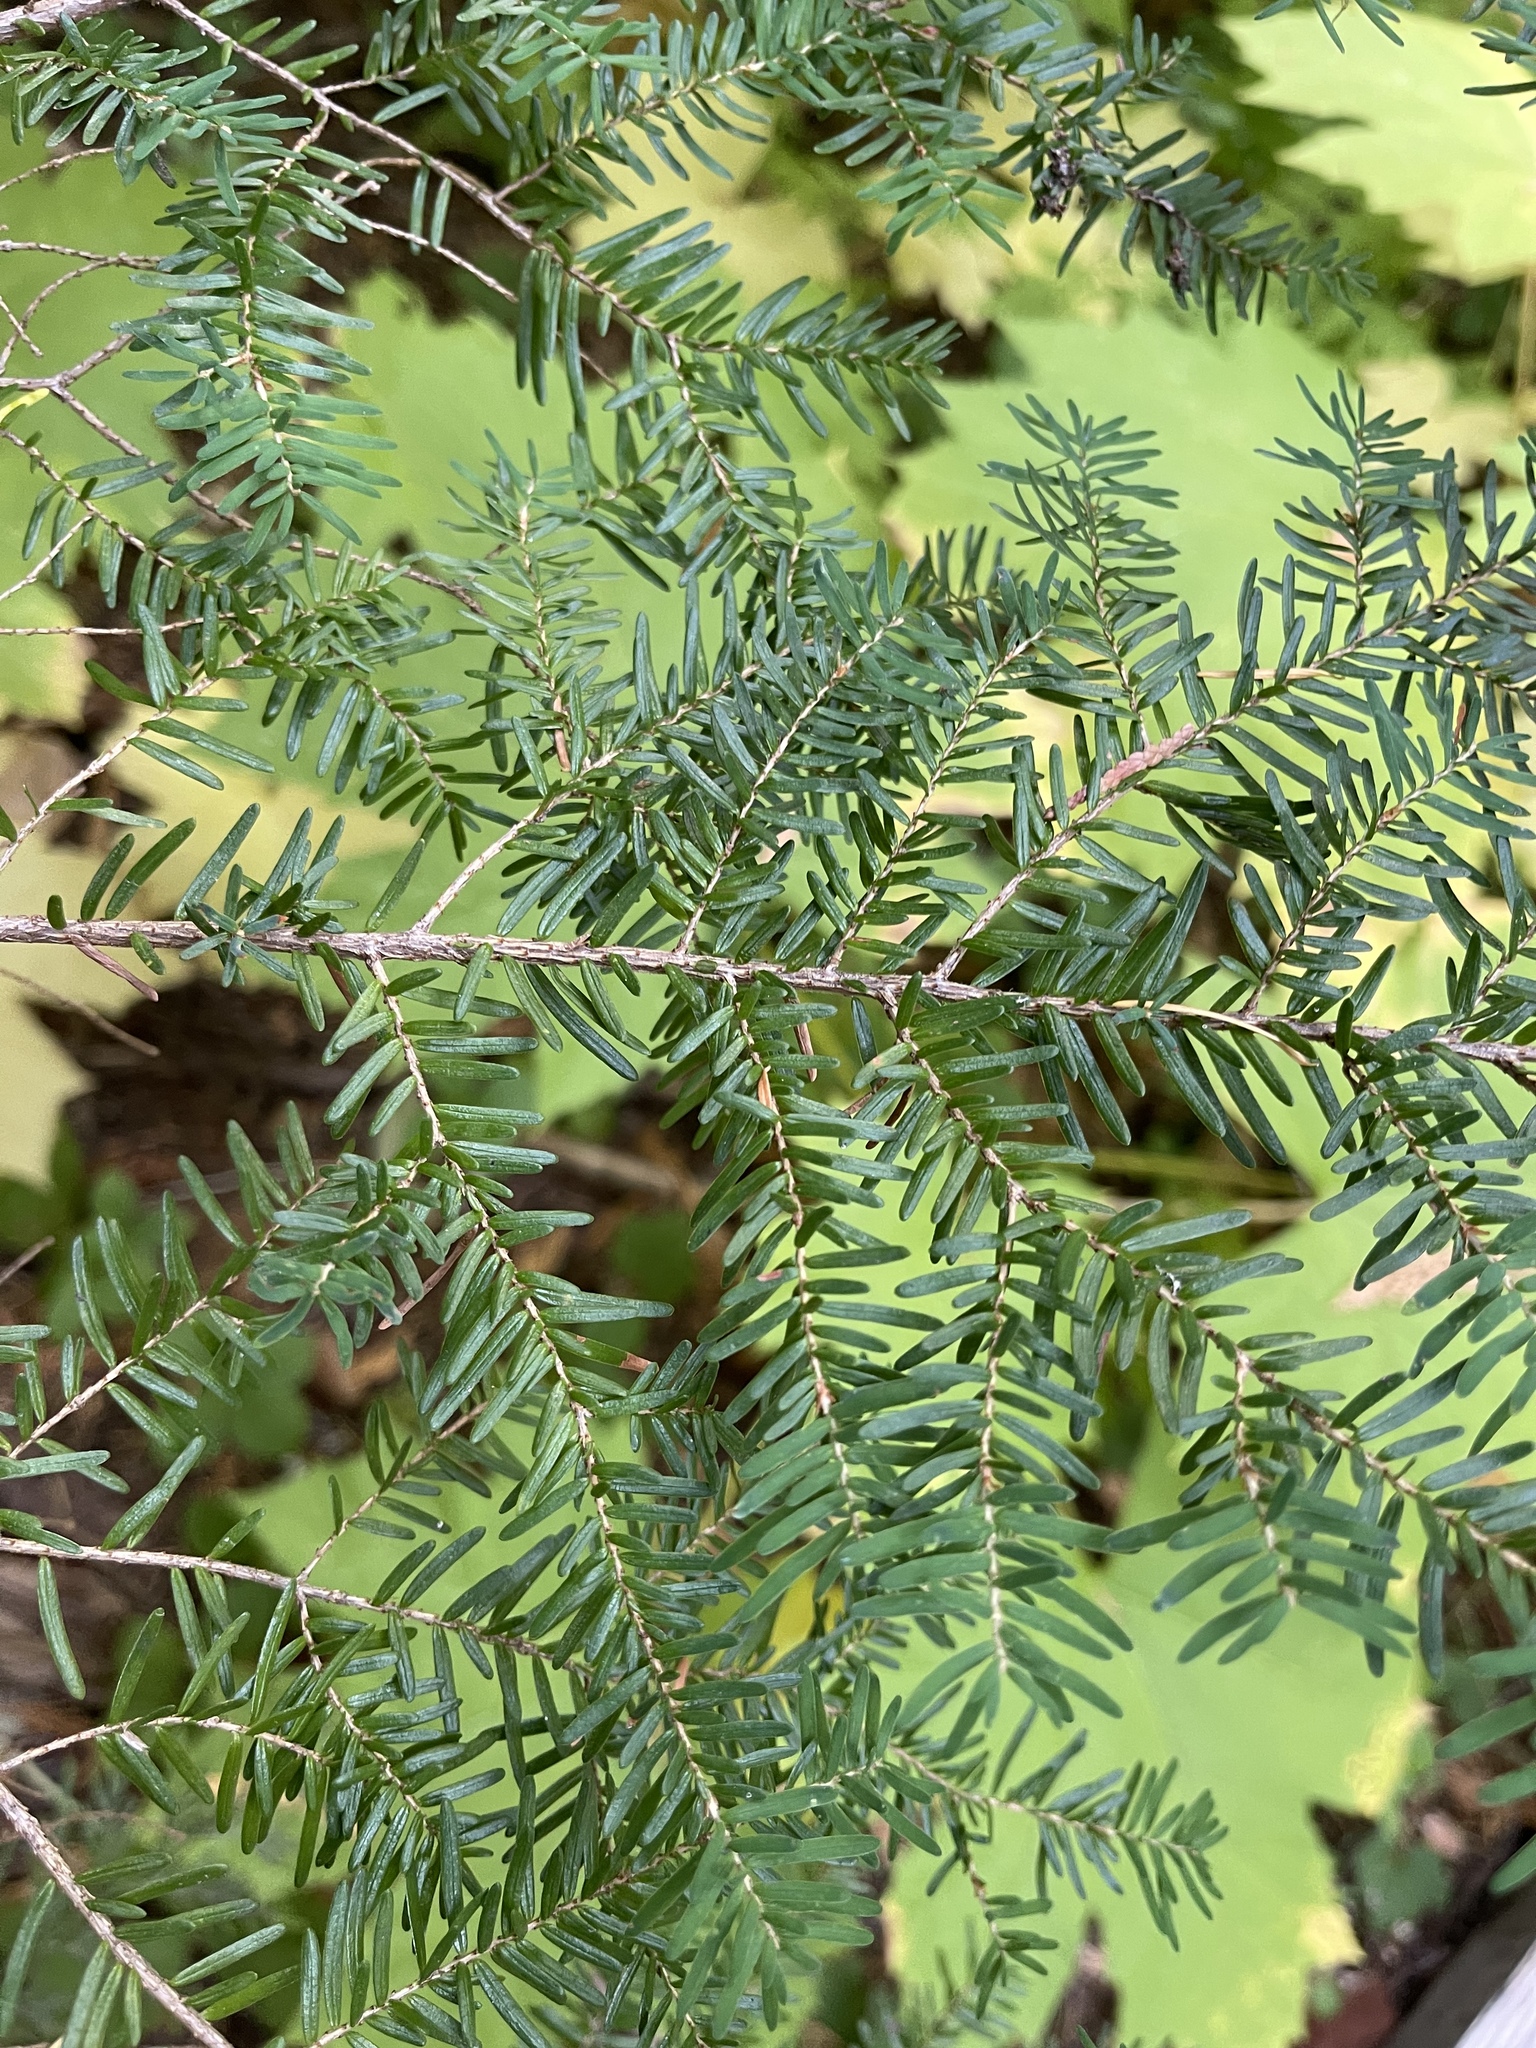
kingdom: Plantae
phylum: Tracheophyta
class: Pinopsida
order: Pinales
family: Pinaceae
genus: Tsuga
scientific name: Tsuga heterophylla
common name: Western hemlock
